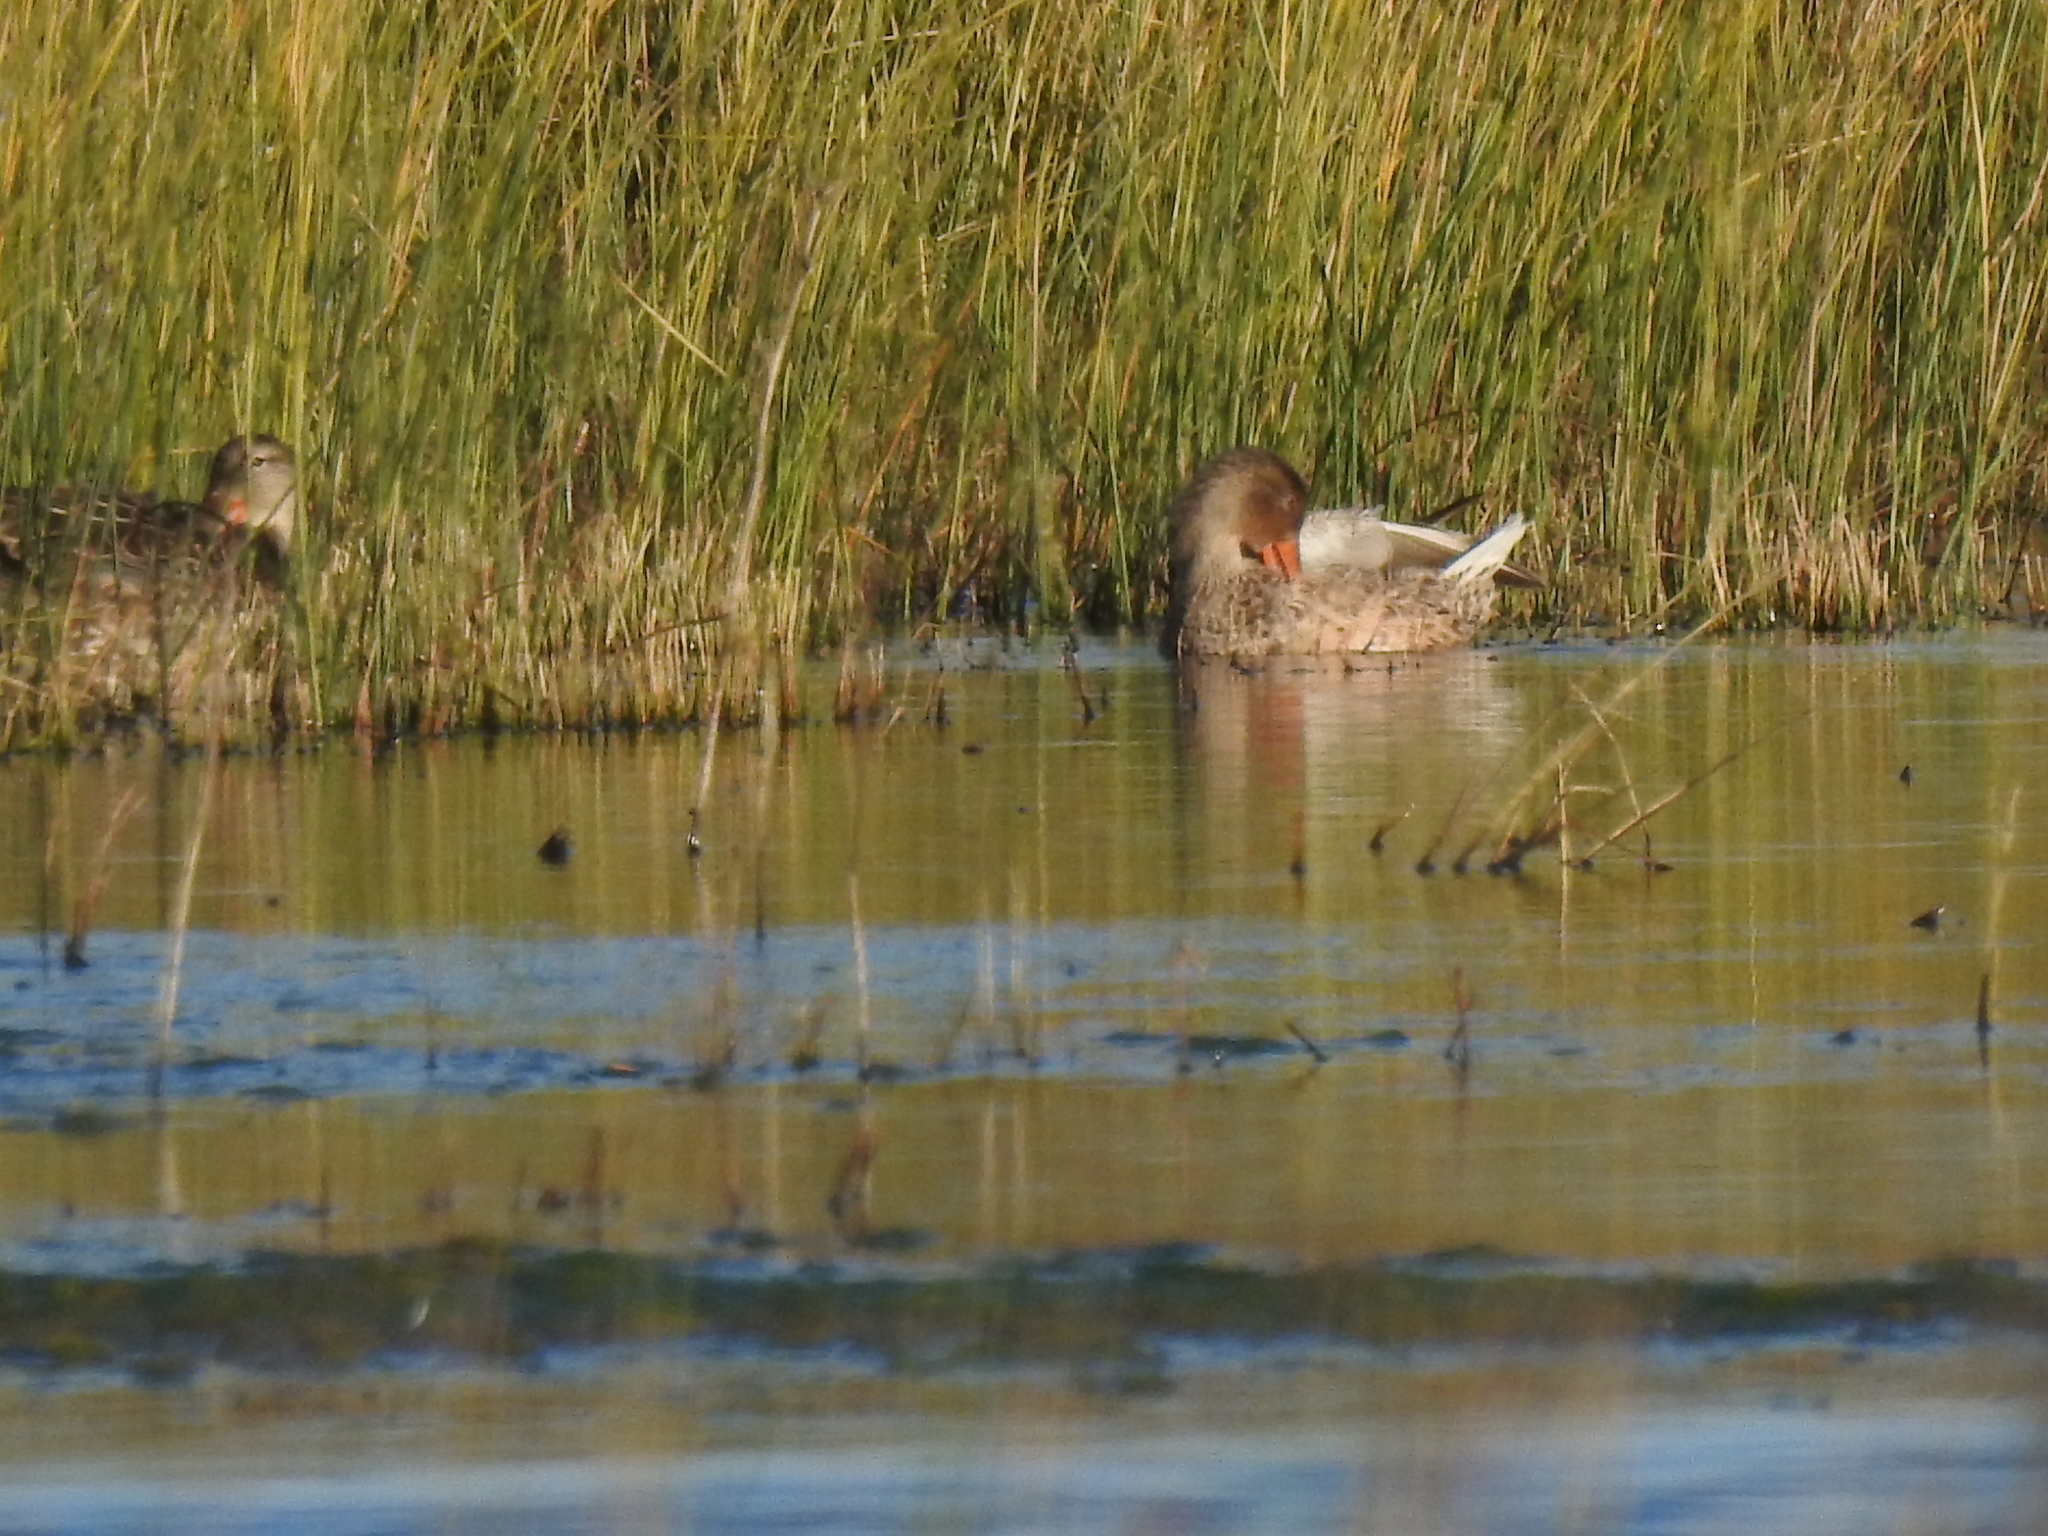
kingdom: Animalia
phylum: Chordata
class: Aves
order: Anseriformes
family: Anatidae
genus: Anas
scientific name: Anas crecca
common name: Eurasian teal
